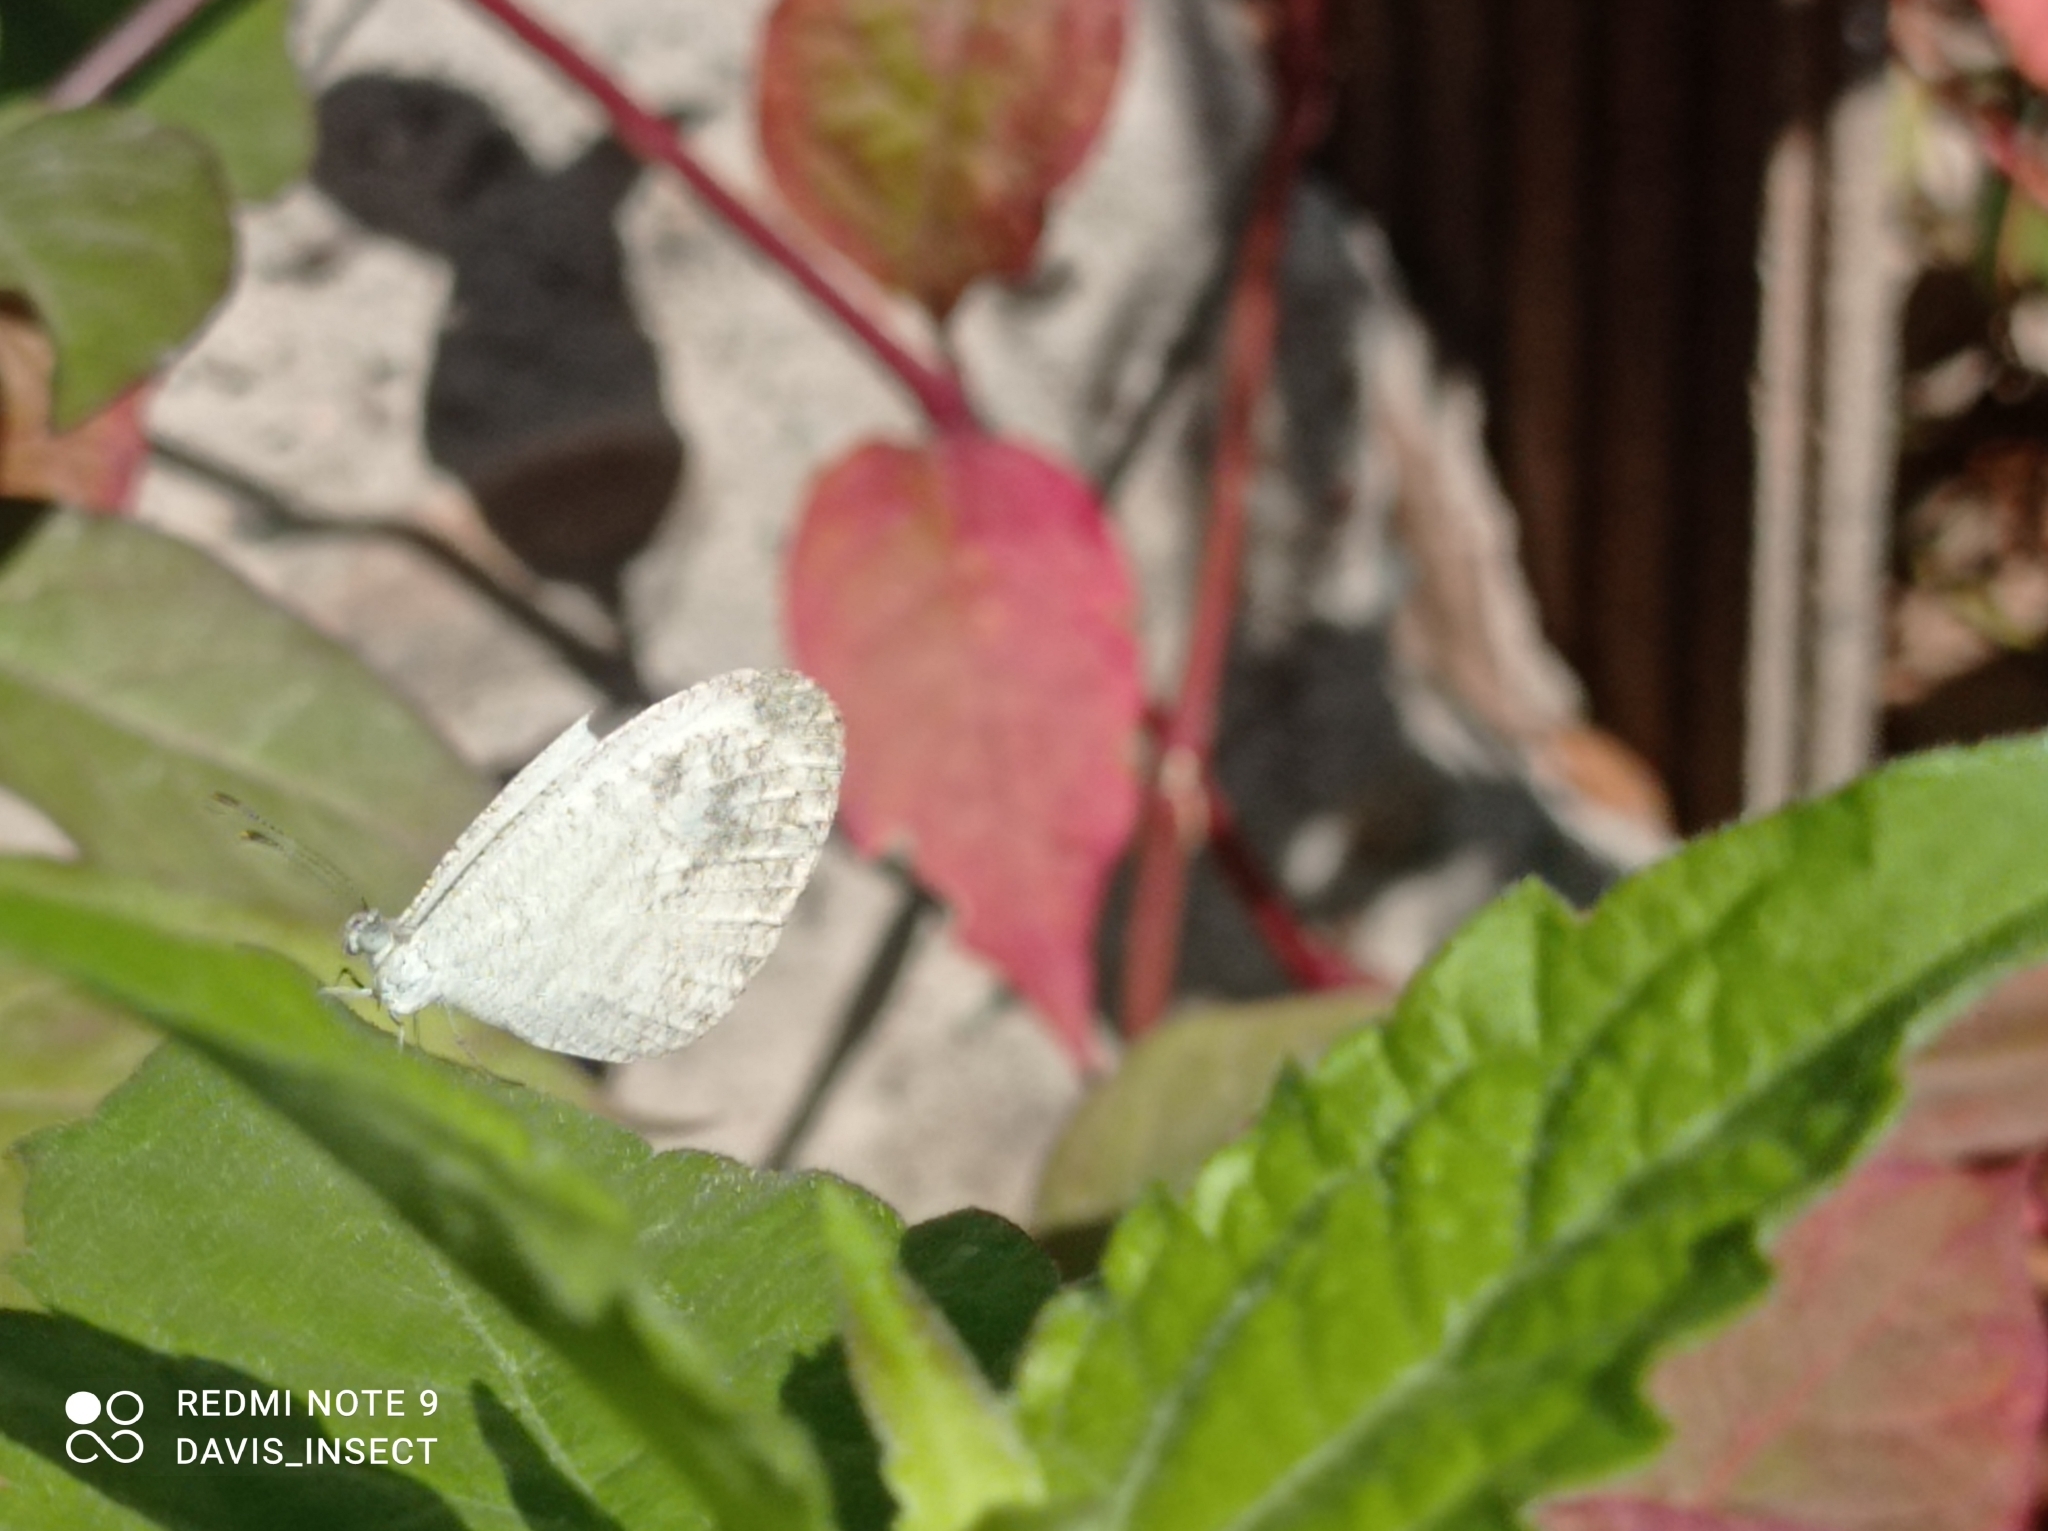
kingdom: Animalia
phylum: Arthropoda
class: Insecta
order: Lepidoptera
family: Pieridae
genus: Leptosia
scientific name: Leptosia nina
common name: Psyche
